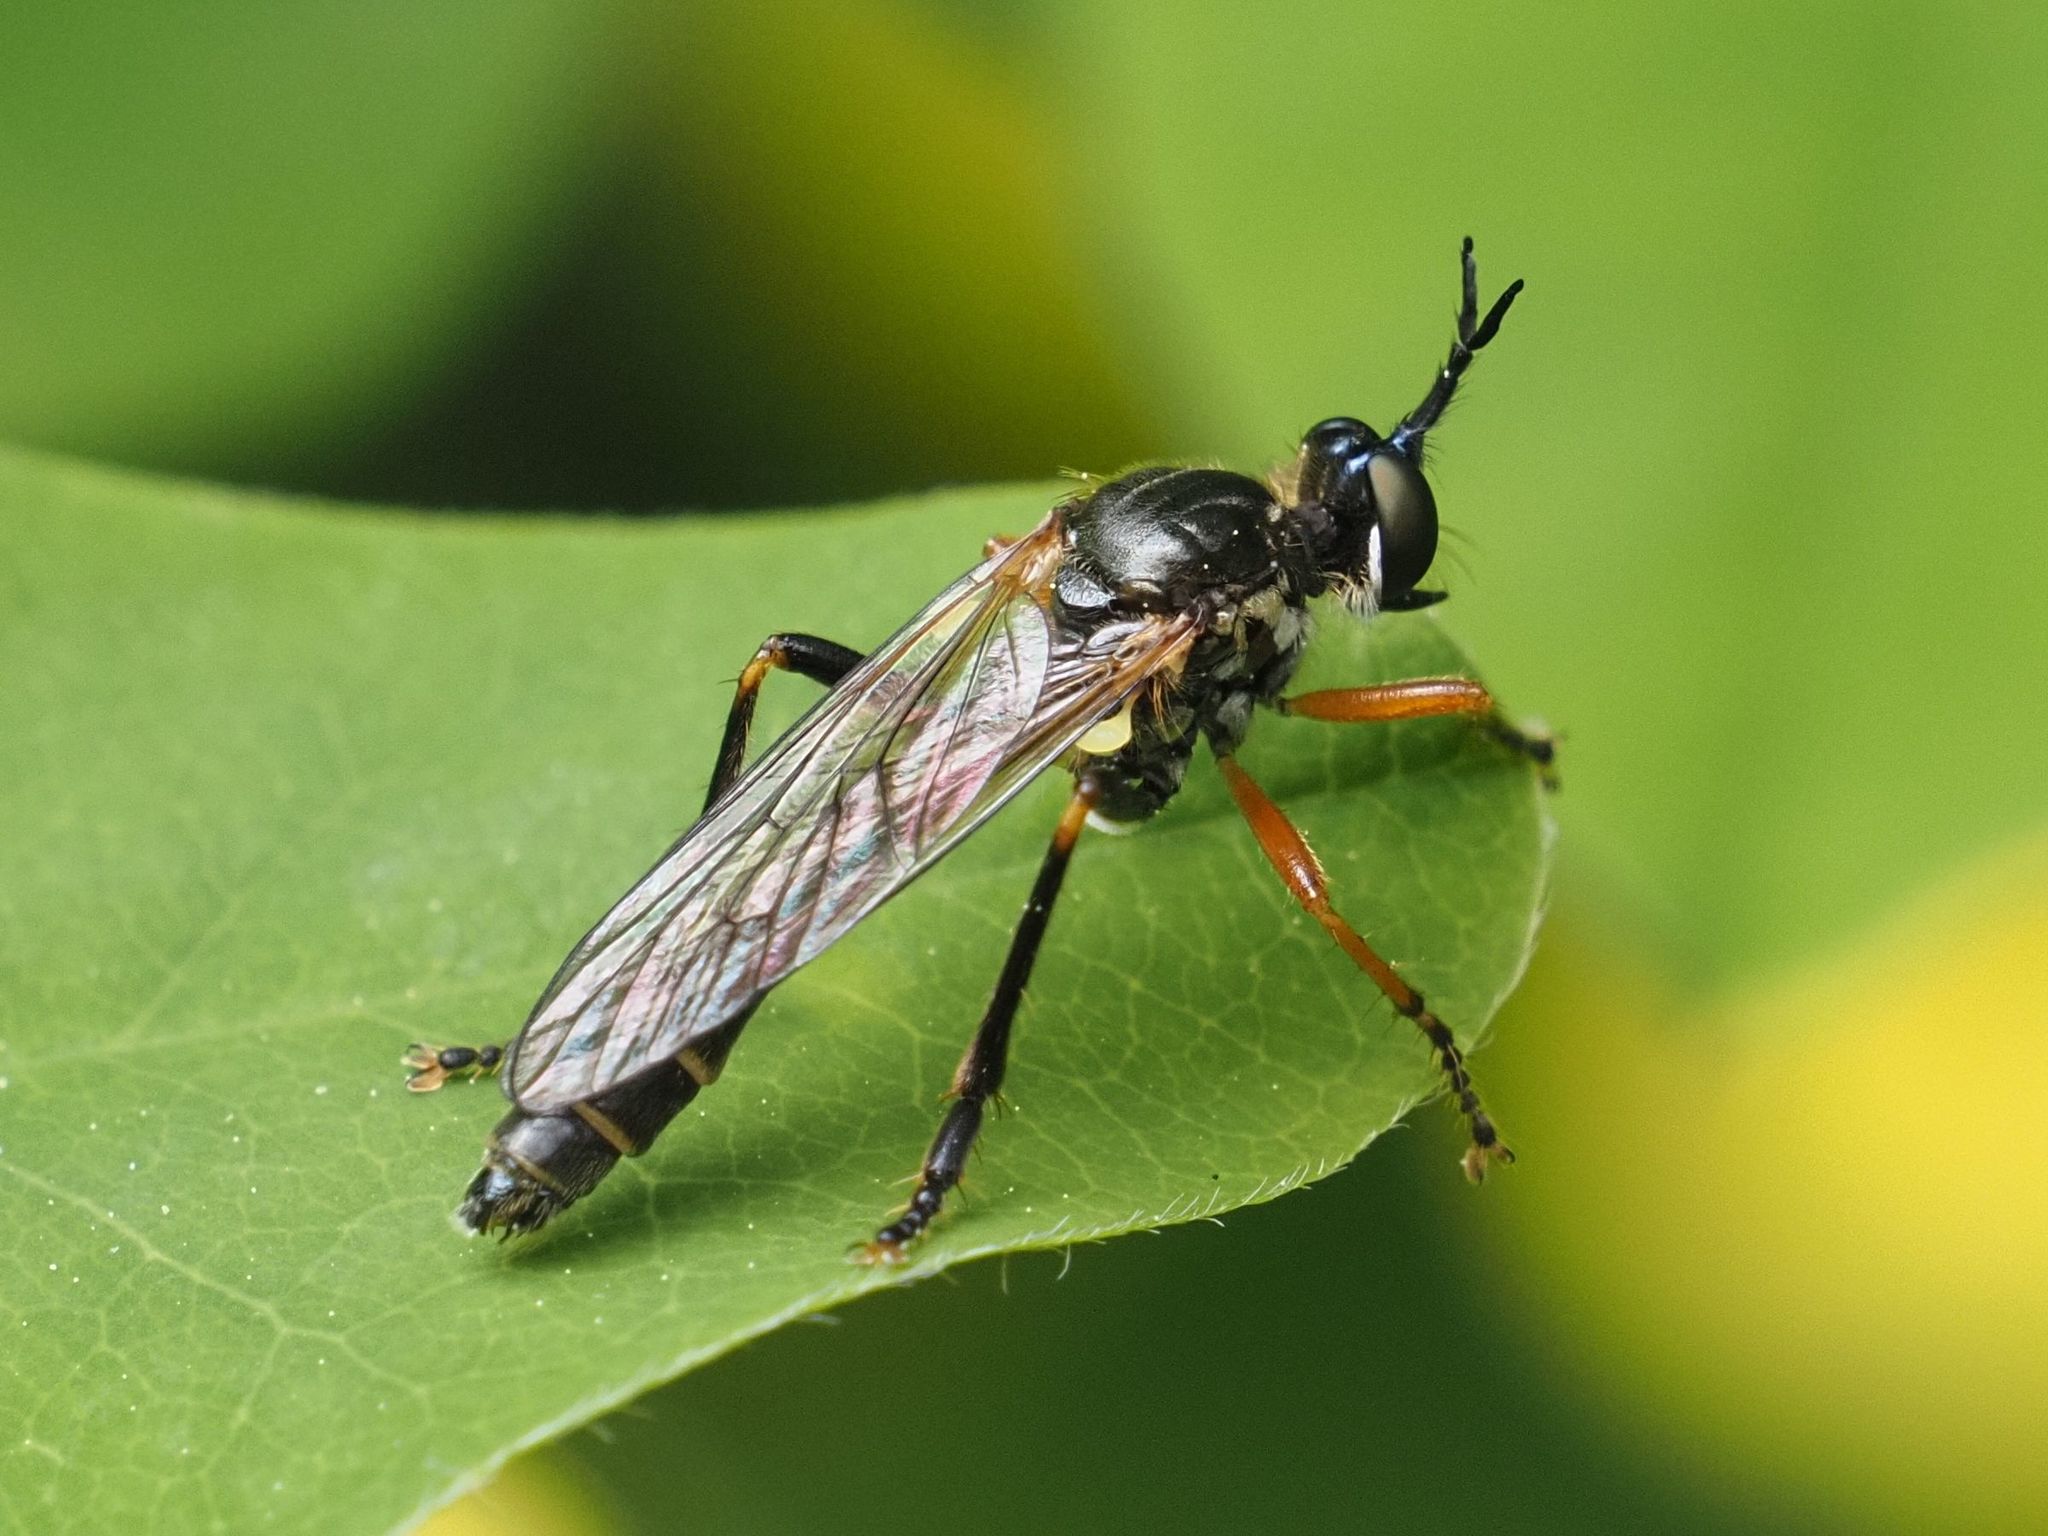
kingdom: Animalia
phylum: Arthropoda
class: Insecta
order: Diptera
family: Asilidae
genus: Dioctria
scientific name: Dioctria rufipes
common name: Common red-legged robberfly
